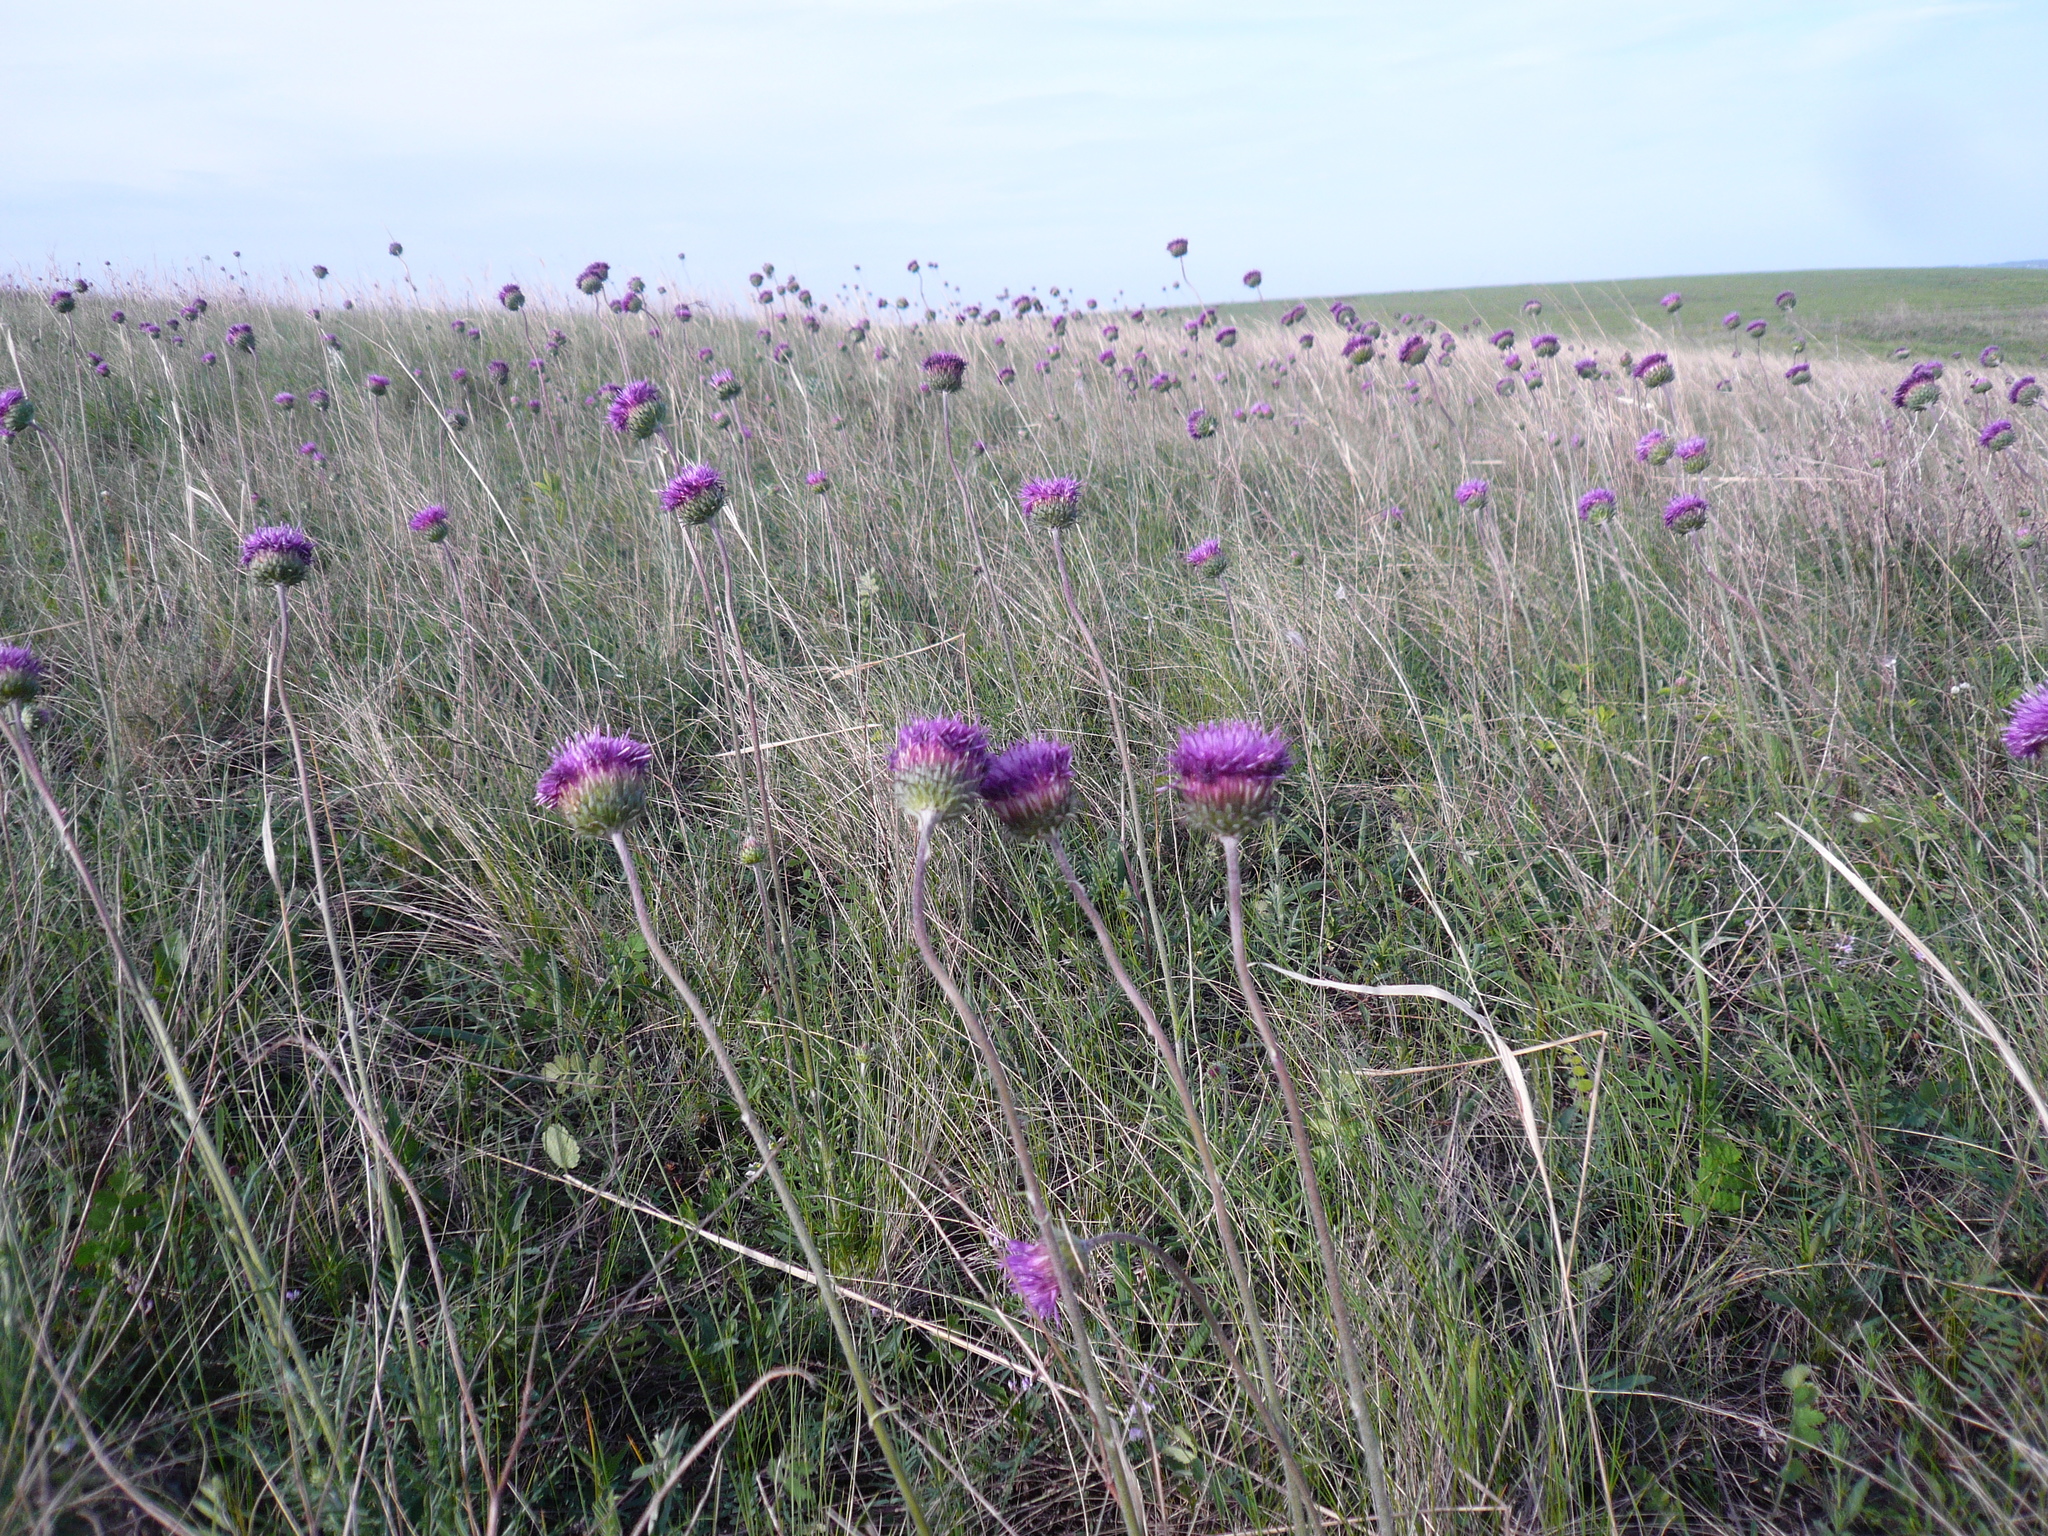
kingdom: Plantae
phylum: Tracheophyta
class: Magnoliopsida
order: Asterales
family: Asteraceae
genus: Jurinea
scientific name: Jurinea ledebourii
